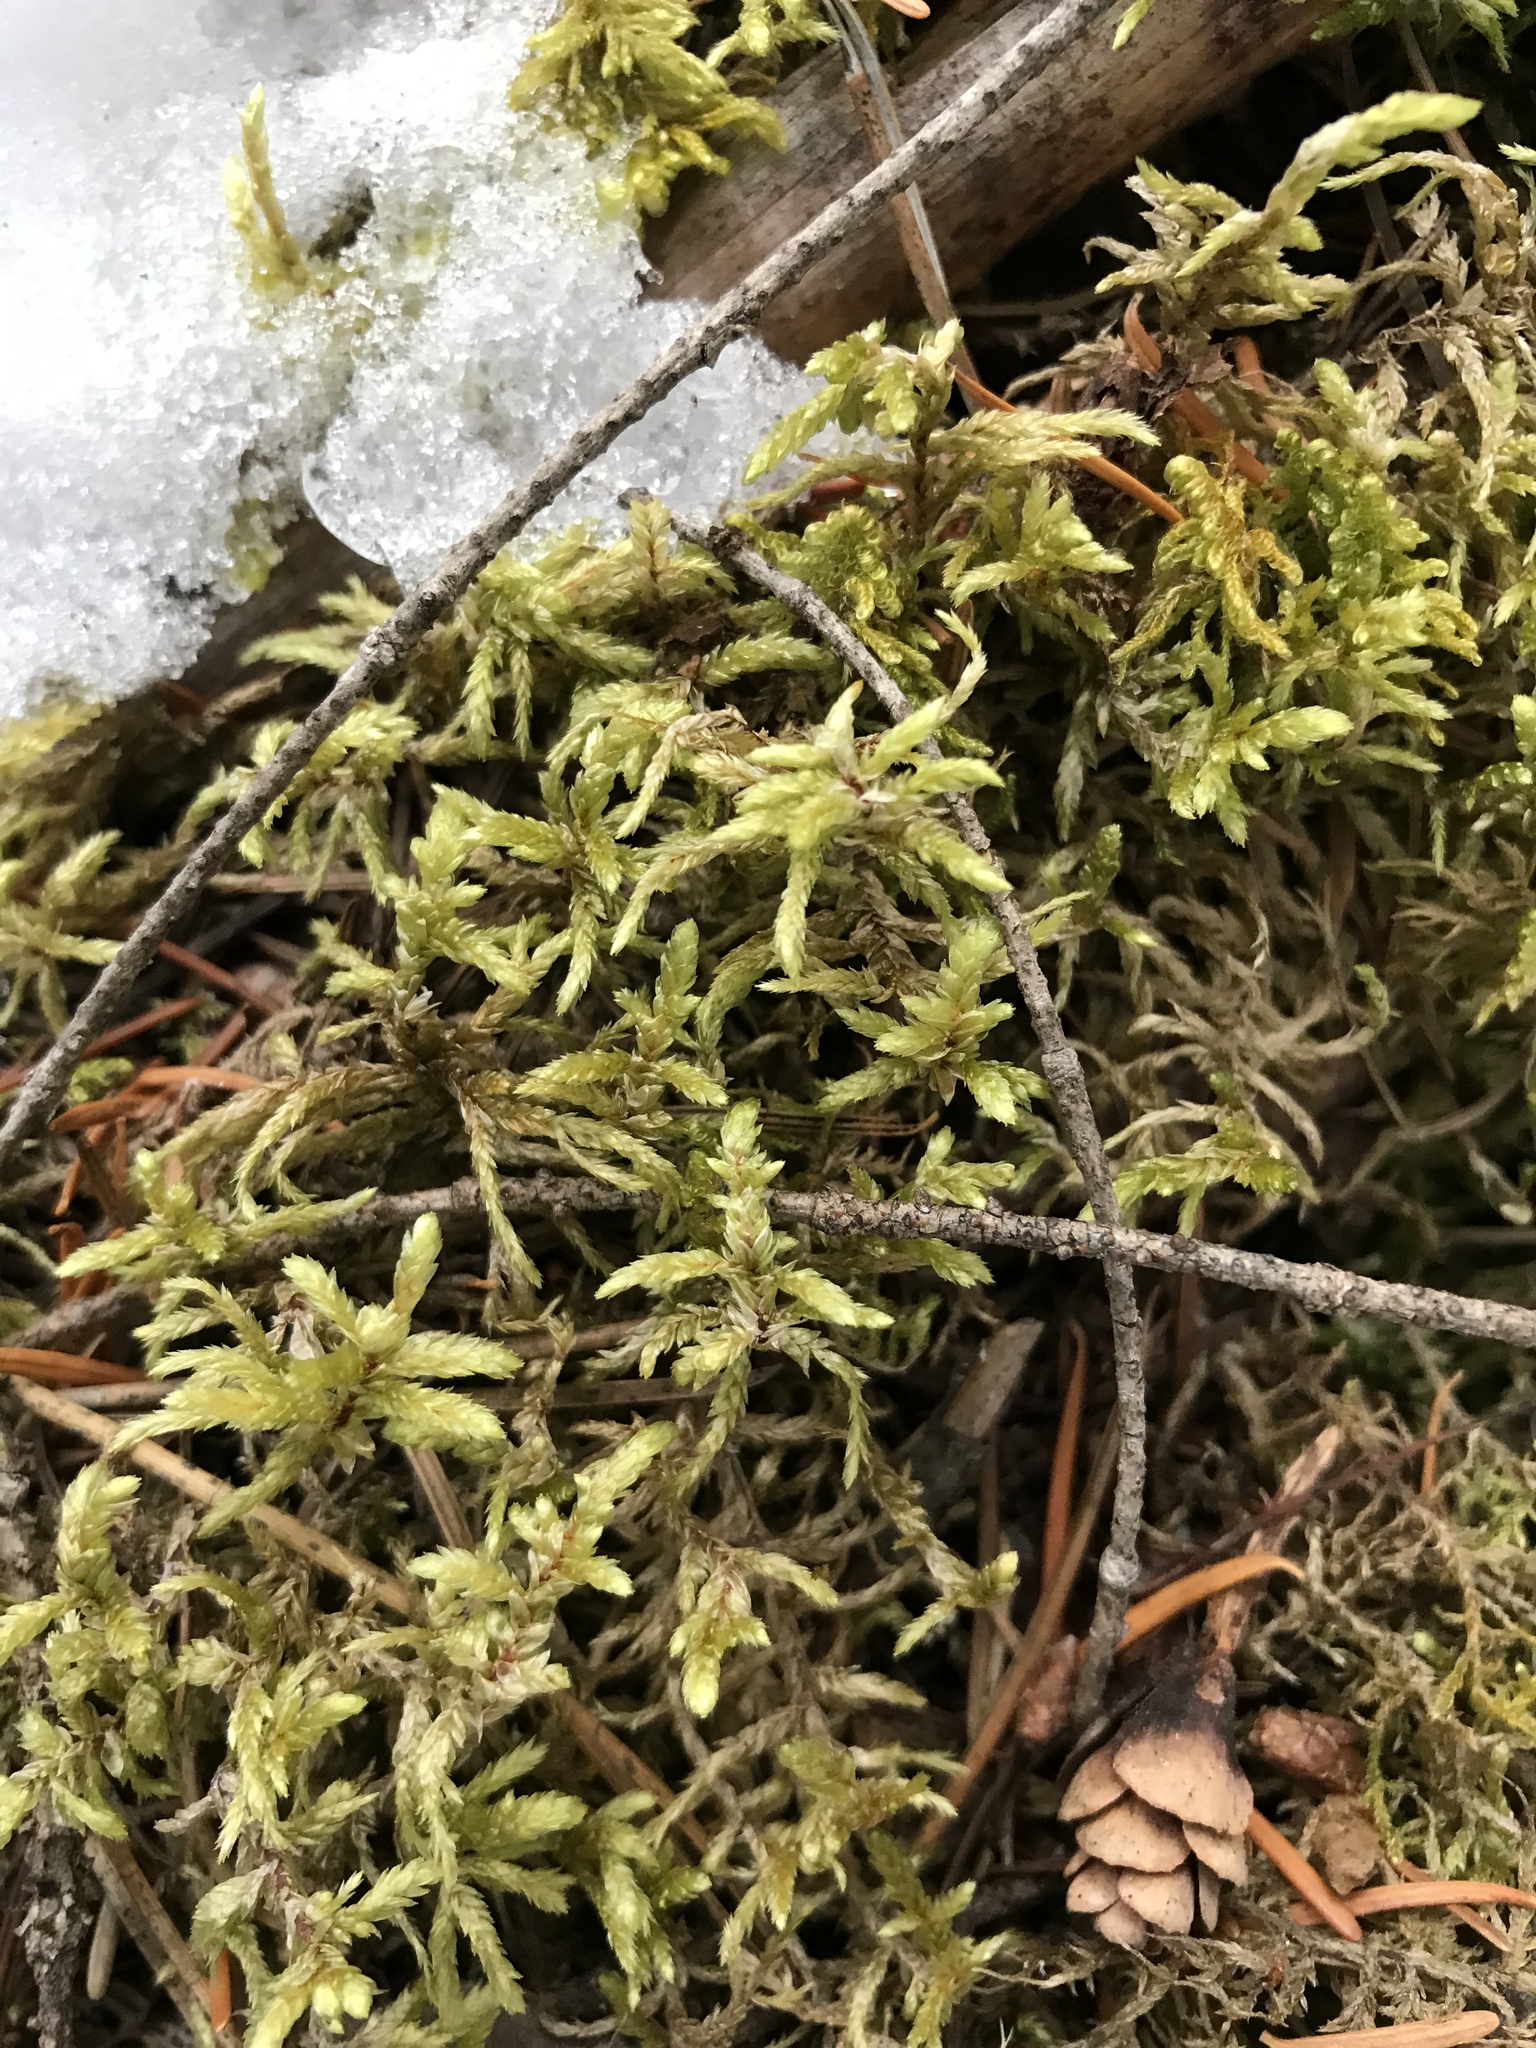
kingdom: Plantae
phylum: Bryophyta
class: Bryopsida
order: Hypnales
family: Hylocomiaceae
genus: Pleurozium
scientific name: Pleurozium schreberi
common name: Red-stemmed feather moss
